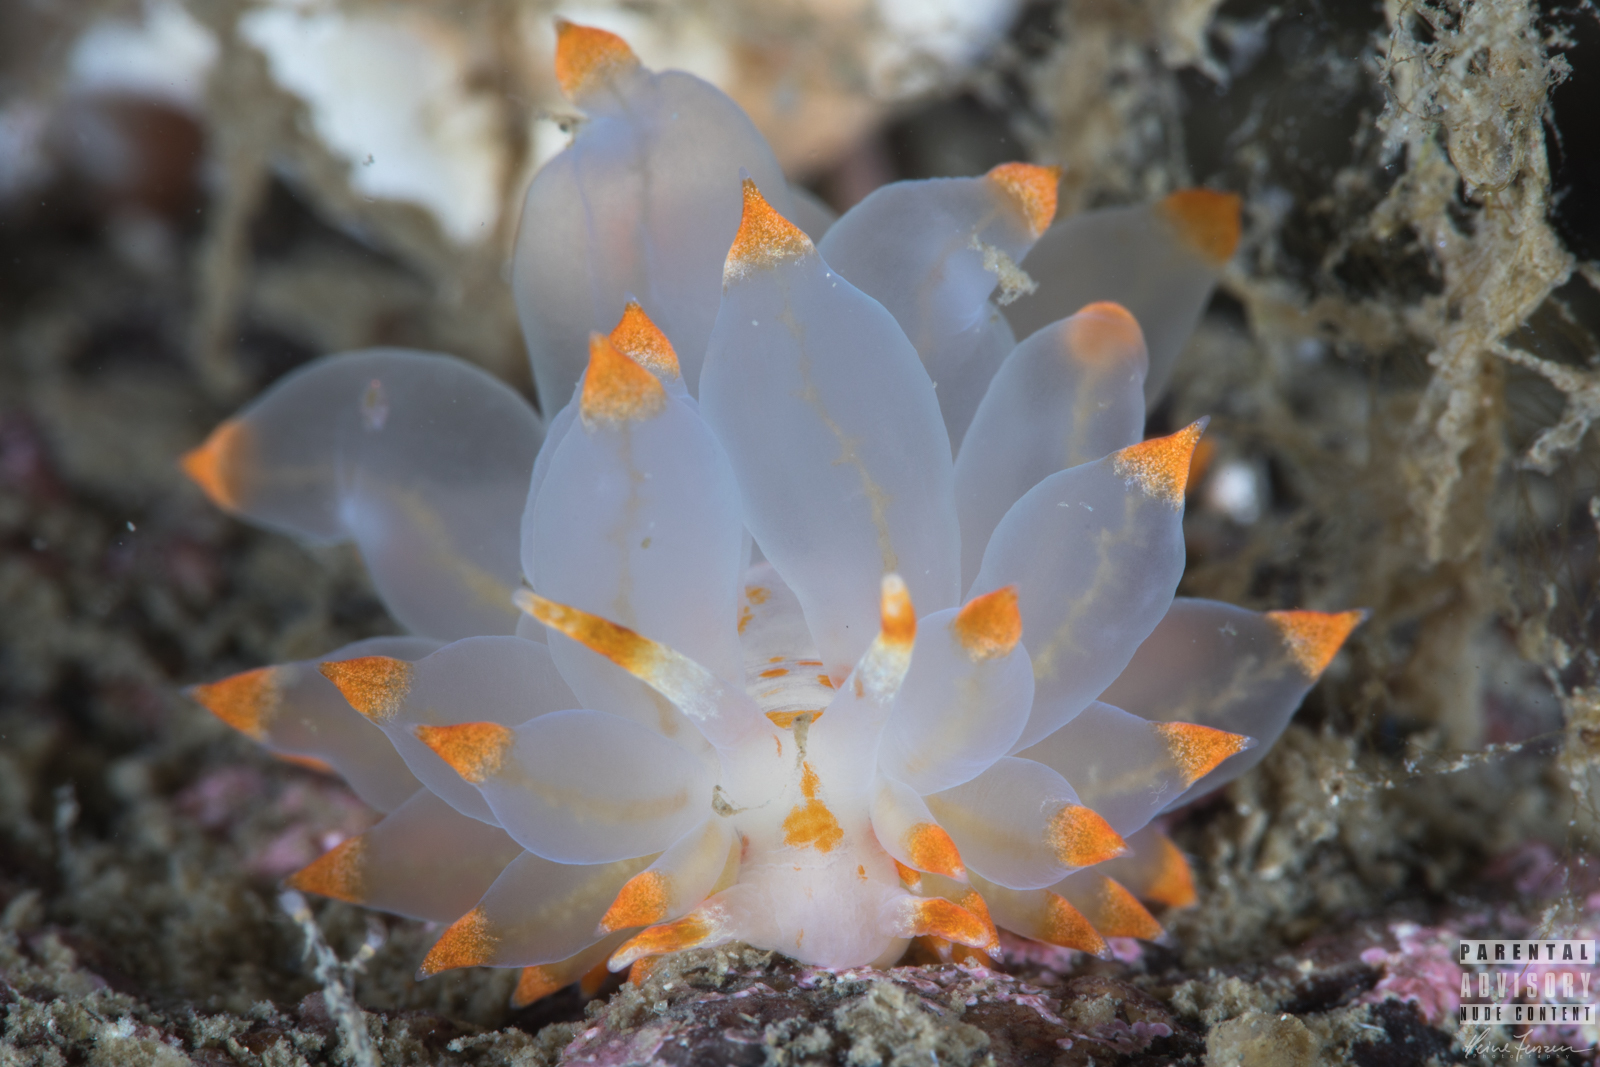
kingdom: Animalia
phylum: Mollusca
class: Gastropoda
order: Nudibranchia
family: Eubranchidae
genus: Amphorina
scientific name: Amphorina farrani
